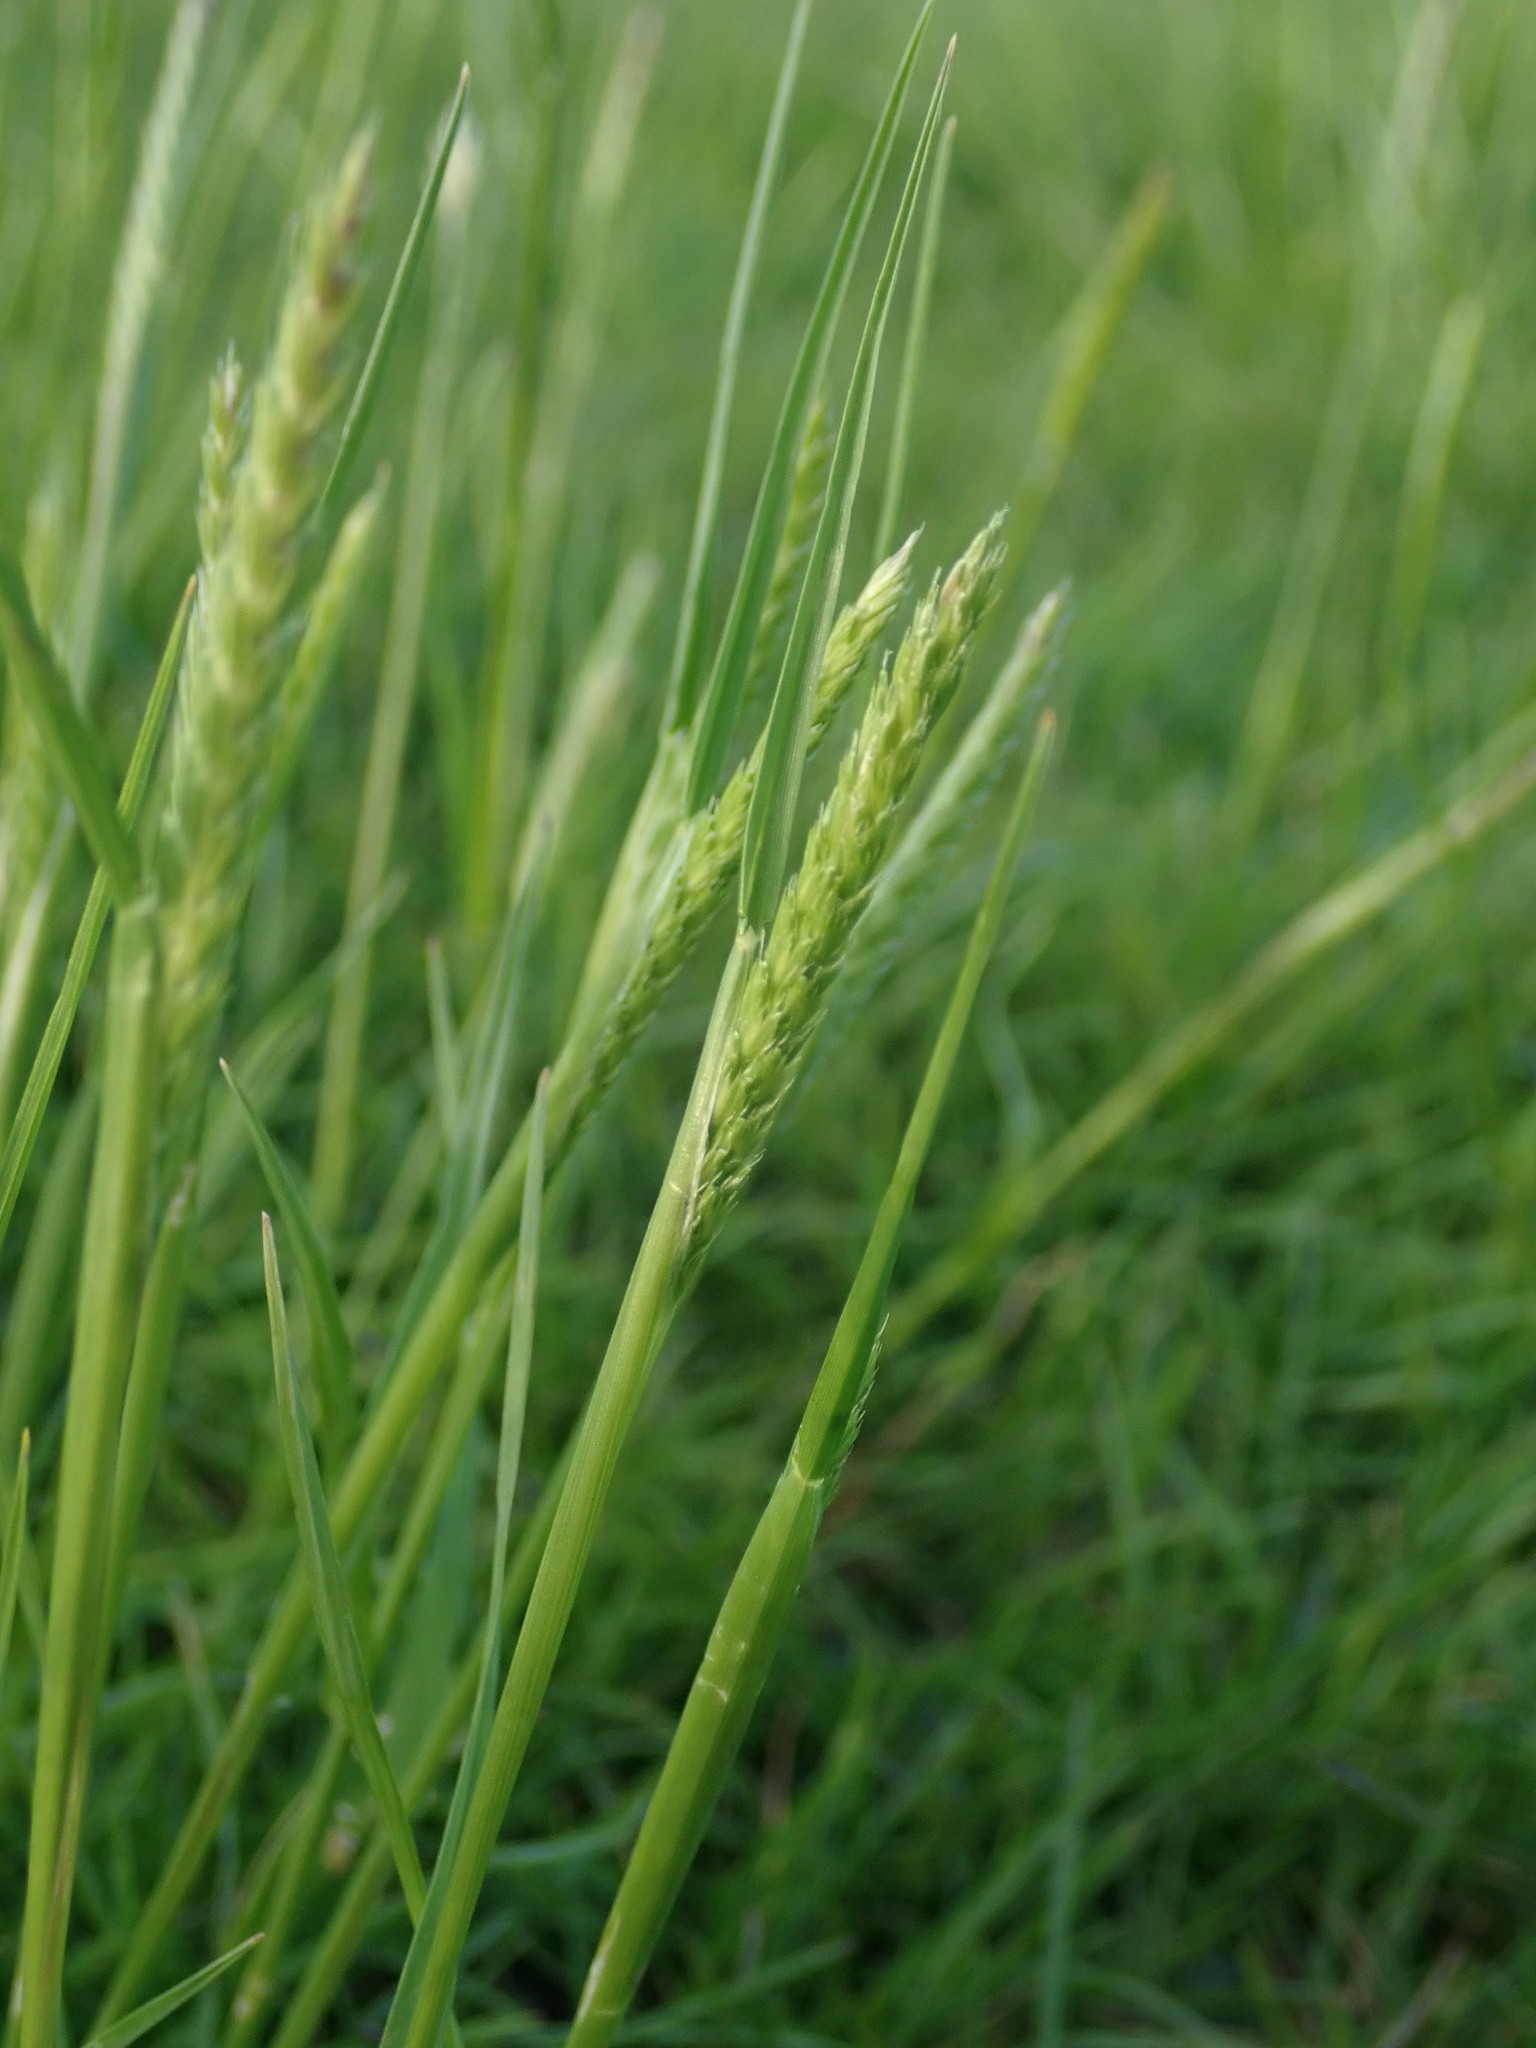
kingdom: Plantae
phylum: Tracheophyta
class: Liliopsida
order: Poales
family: Poaceae
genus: Cynosurus
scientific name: Cynosurus cristatus
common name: Crested dog's-tail
